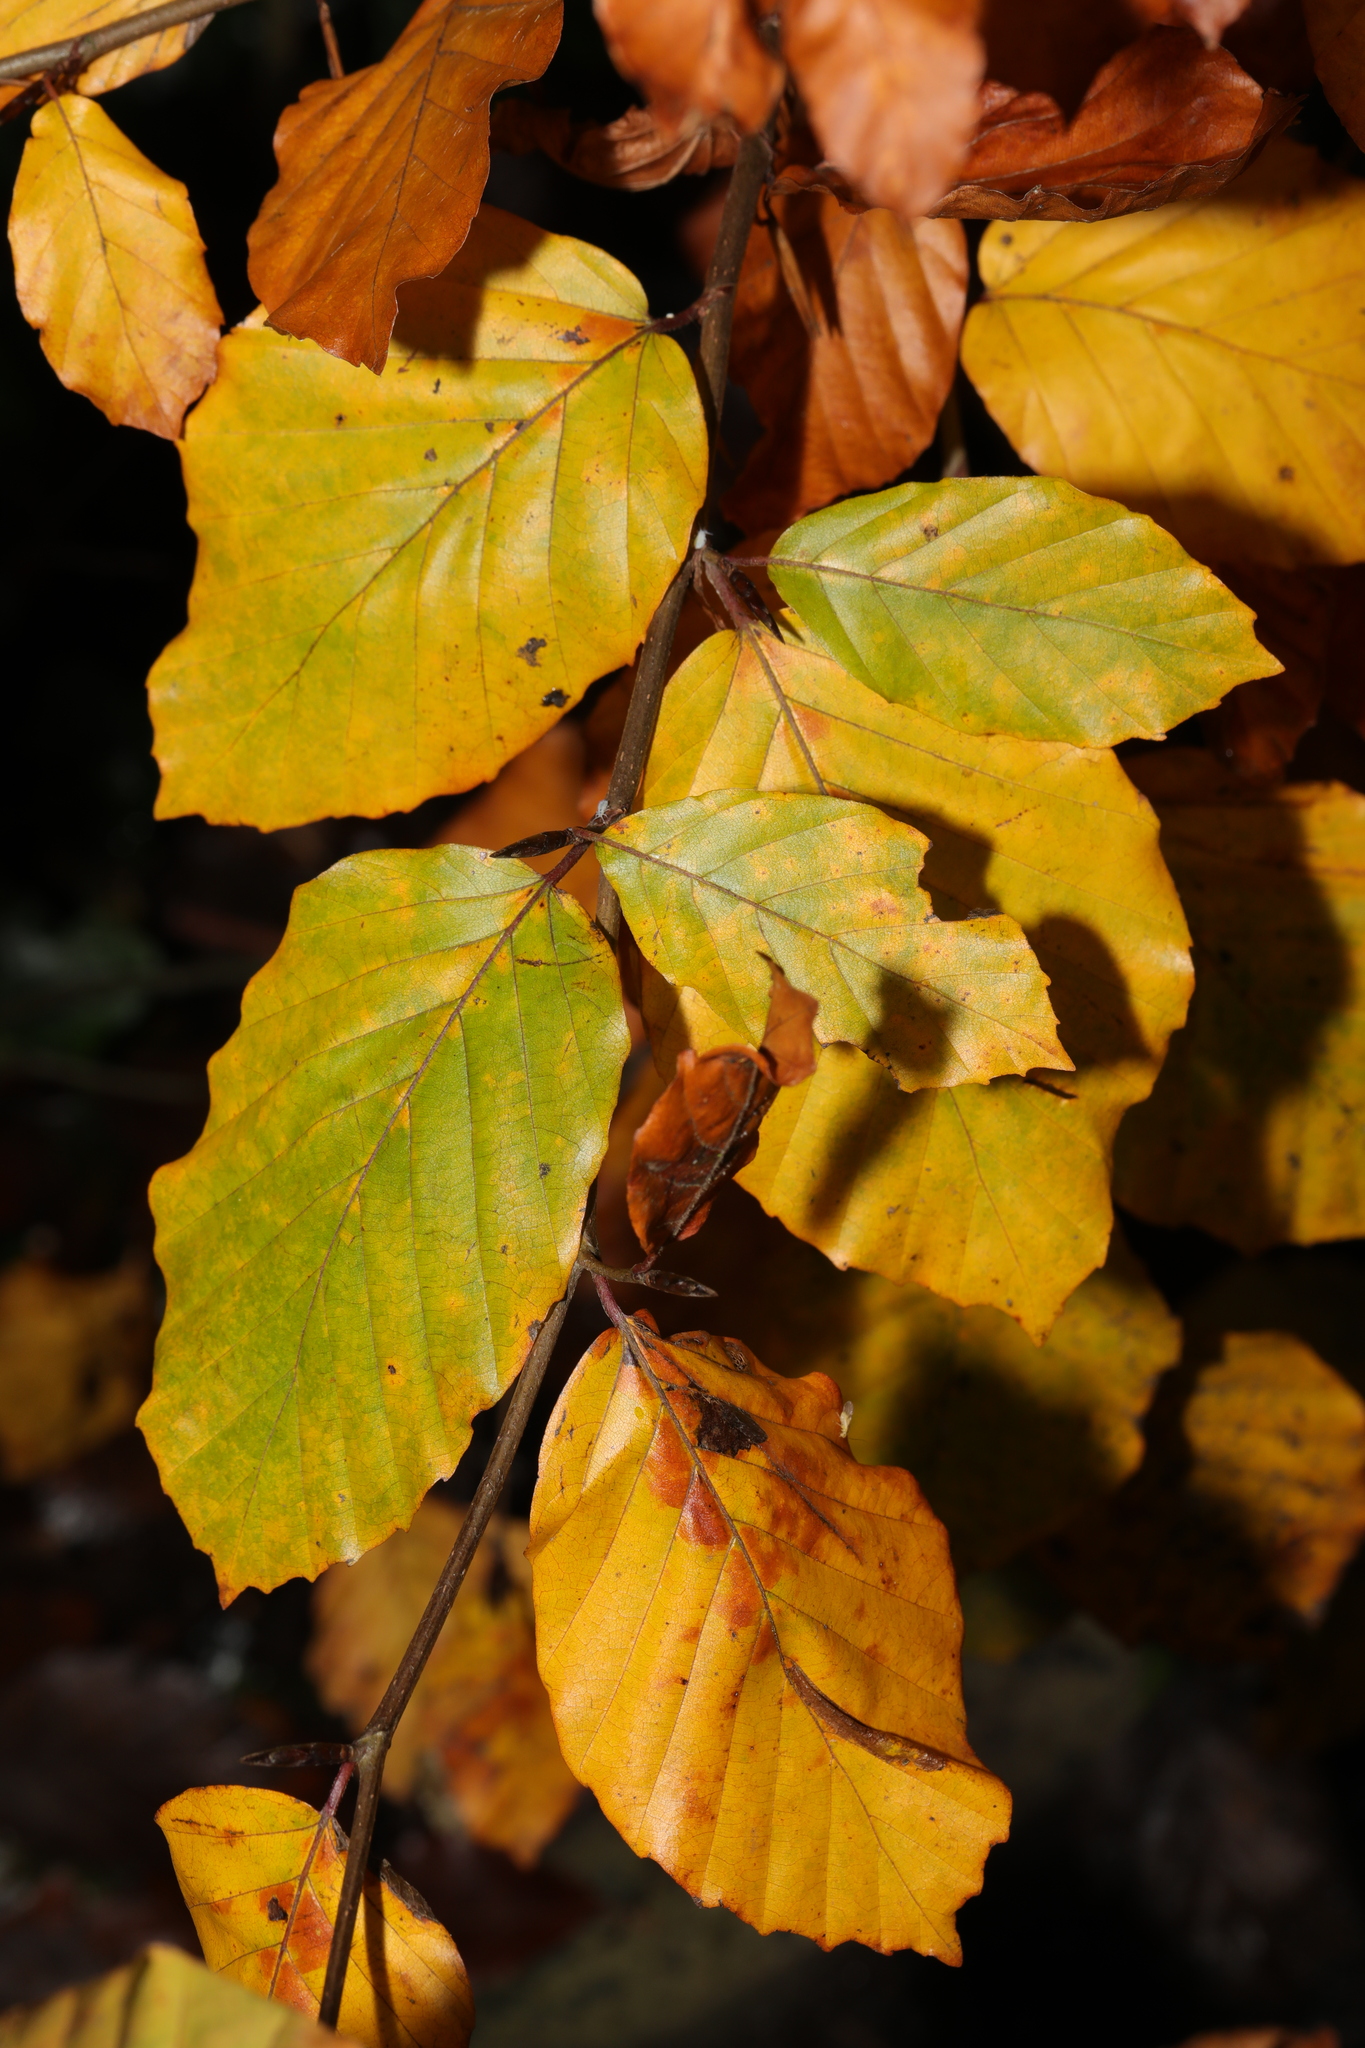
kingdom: Plantae
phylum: Tracheophyta
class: Magnoliopsida
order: Fagales
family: Fagaceae
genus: Fagus
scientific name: Fagus sylvatica
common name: Beech
